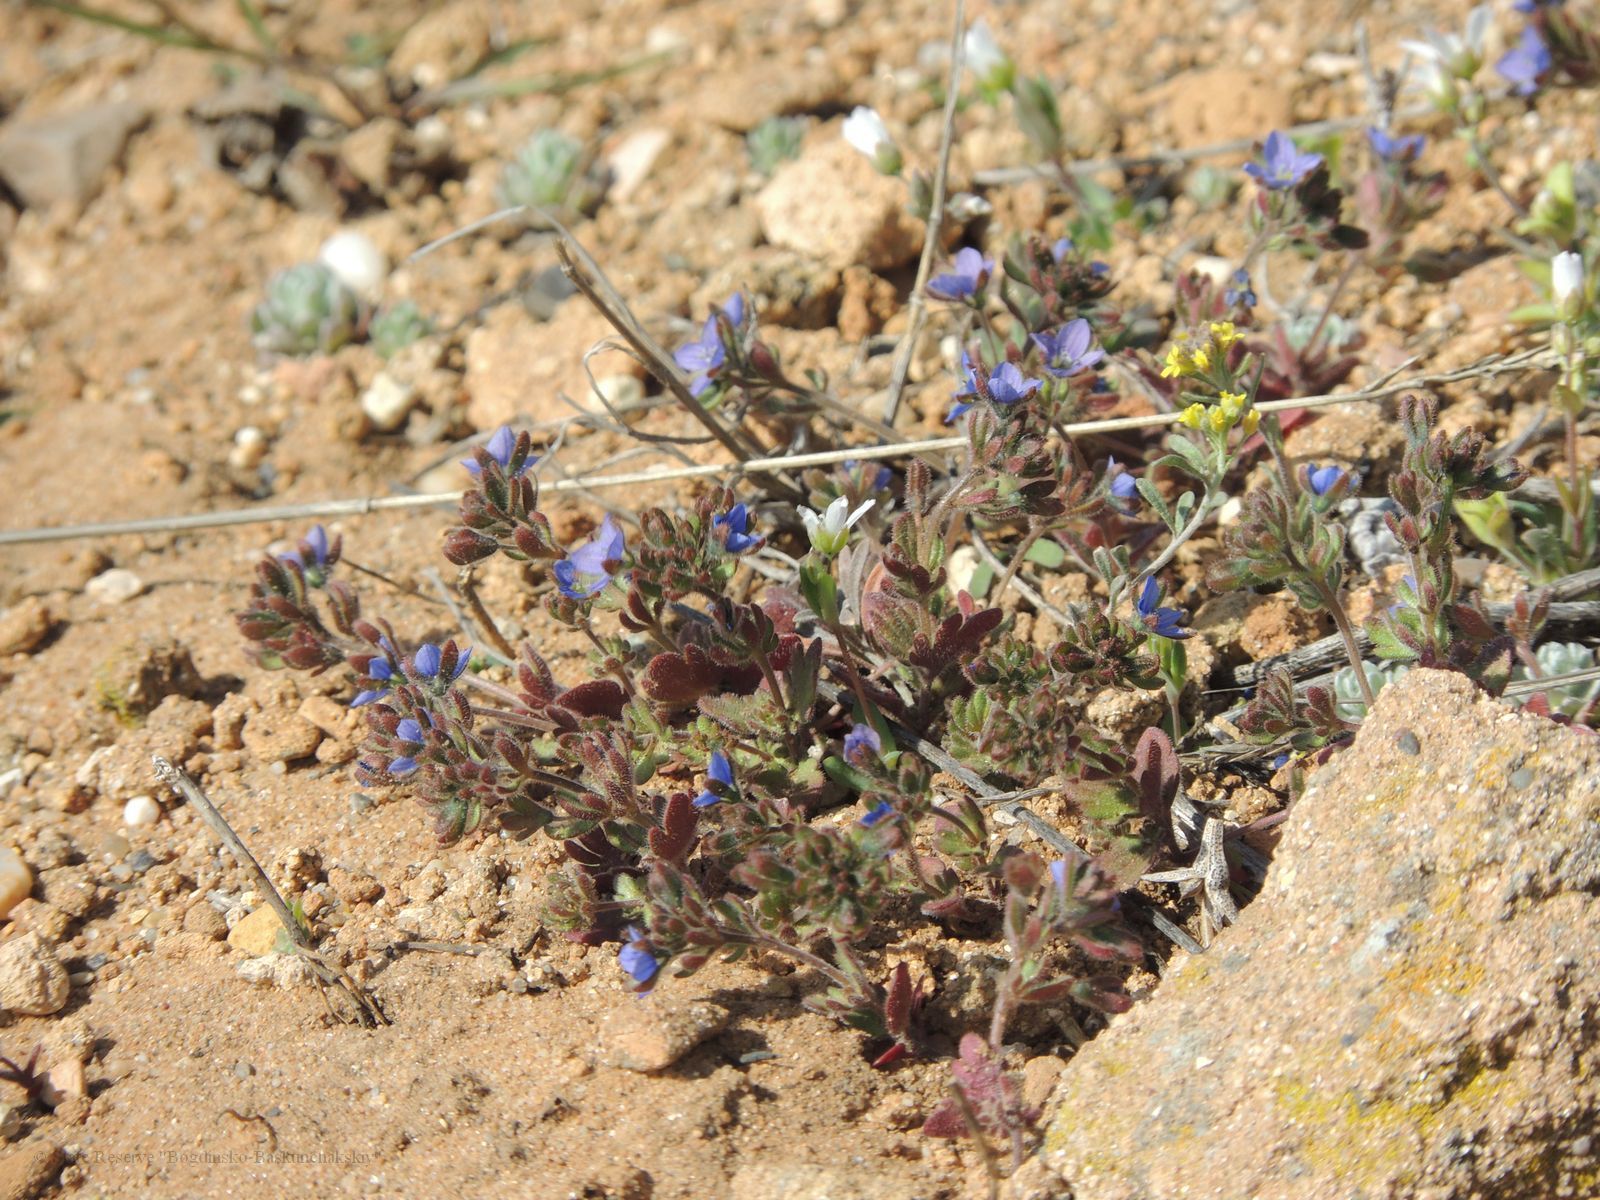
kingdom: Plantae
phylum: Tracheophyta
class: Magnoliopsida
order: Lamiales
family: Plantaginaceae
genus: Veronica
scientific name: Veronica triphyllos
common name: Fingered speedwell
